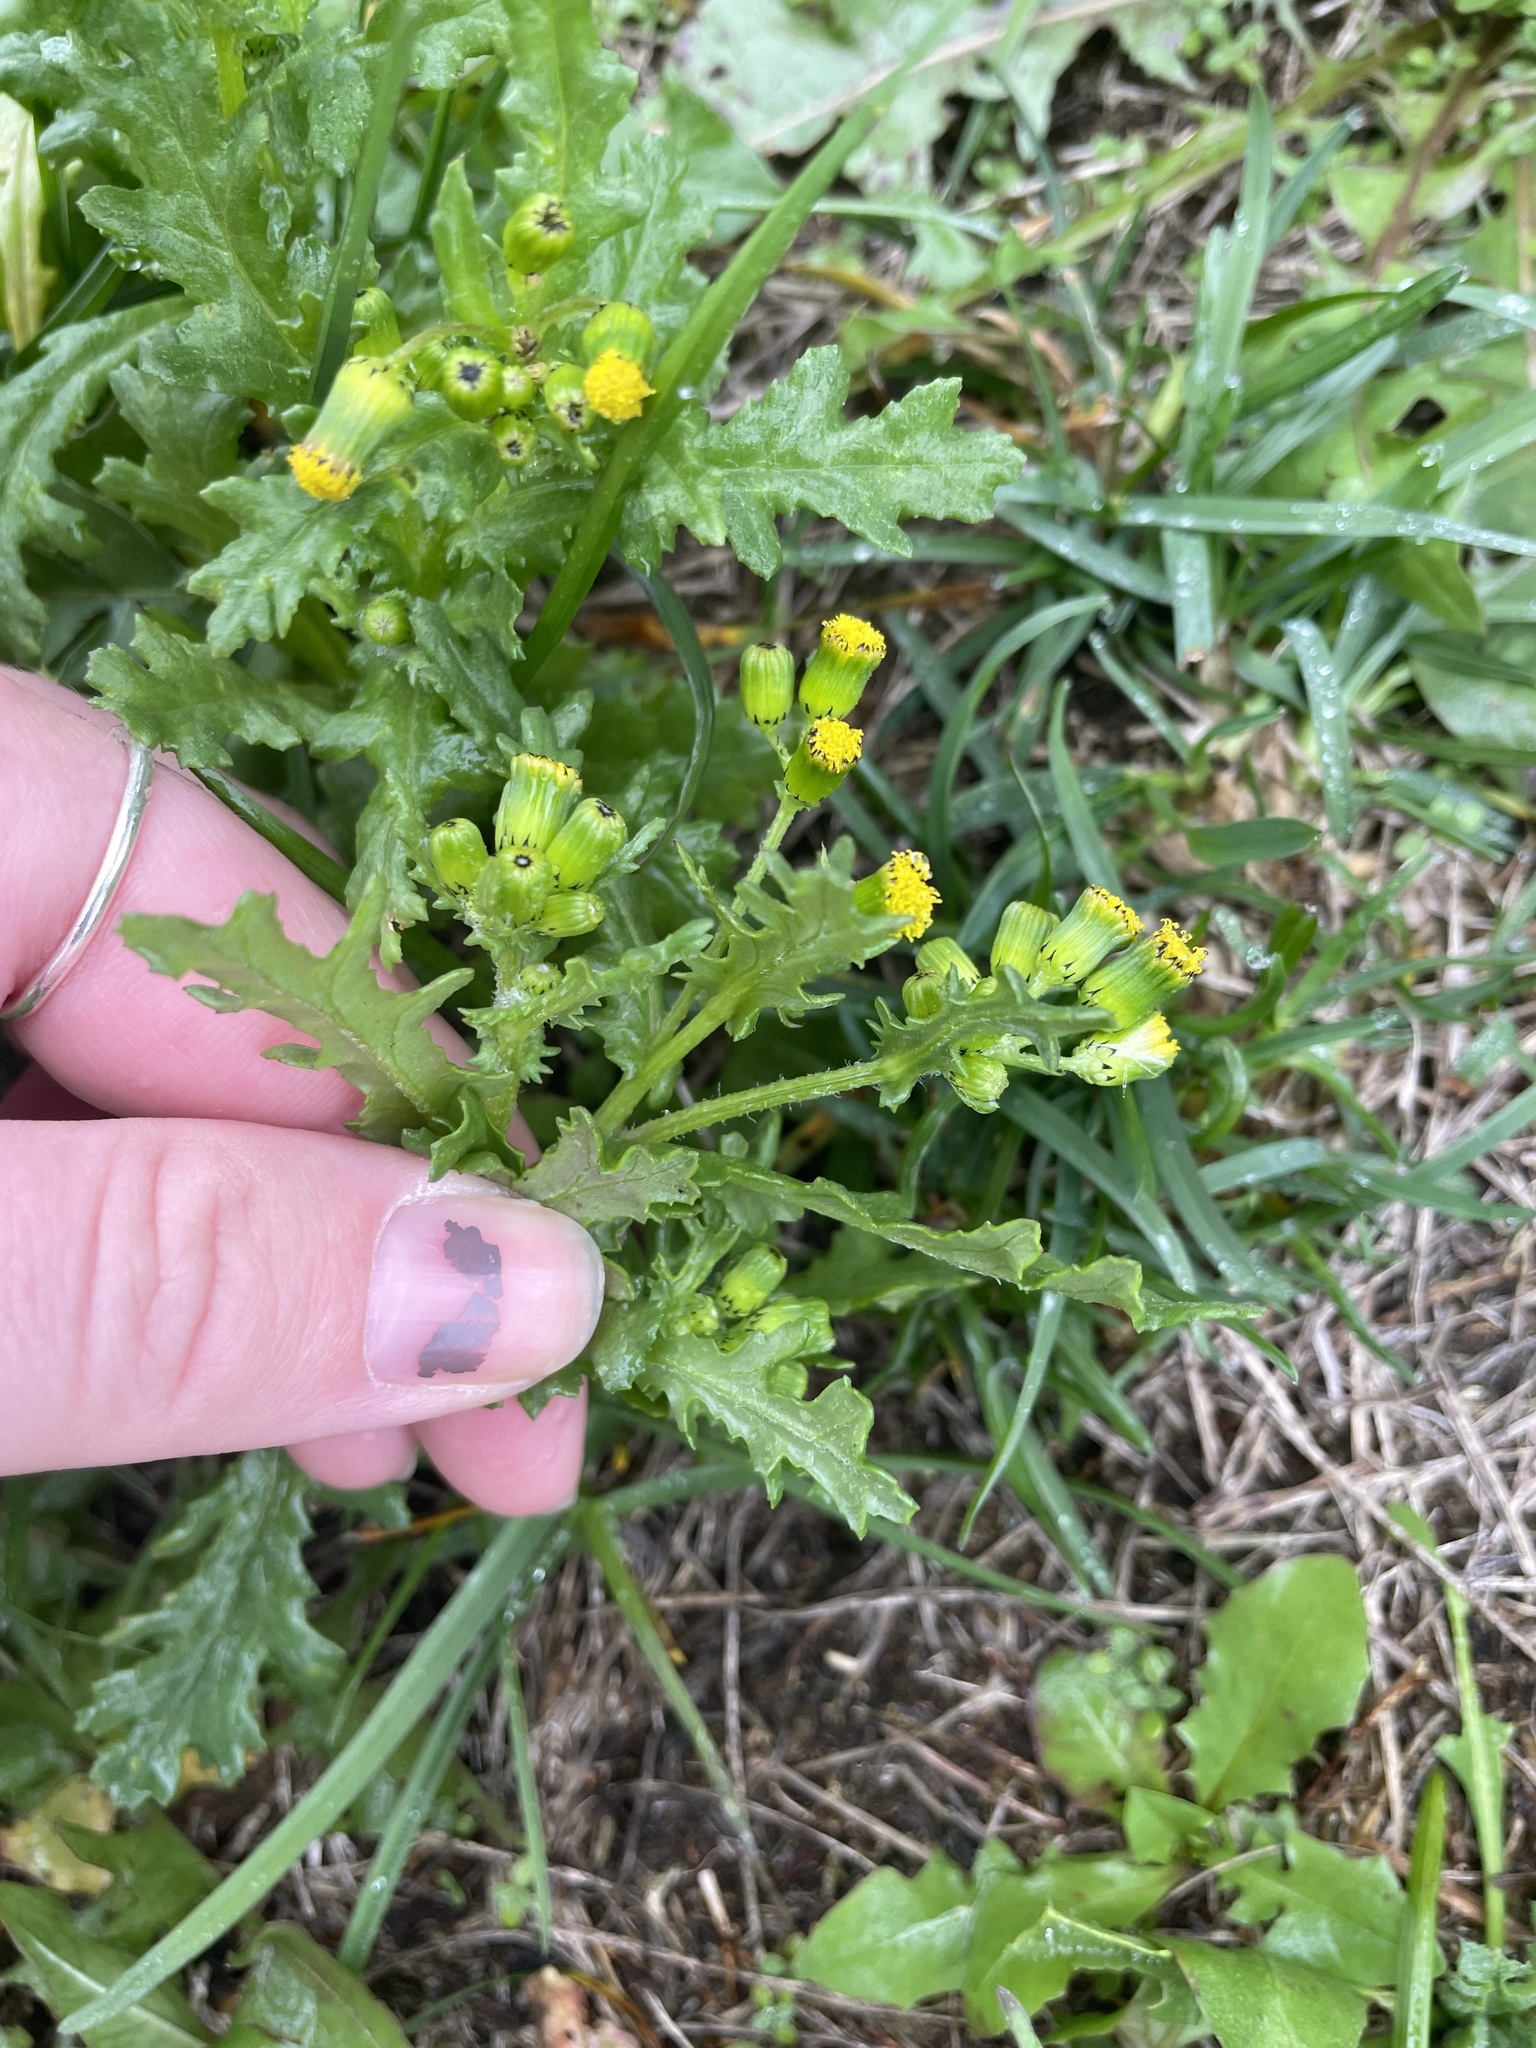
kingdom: Plantae
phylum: Tracheophyta
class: Magnoliopsida
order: Asterales
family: Asteraceae
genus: Senecio
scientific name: Senecio vulgaris
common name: Old-man-in-the-spring
